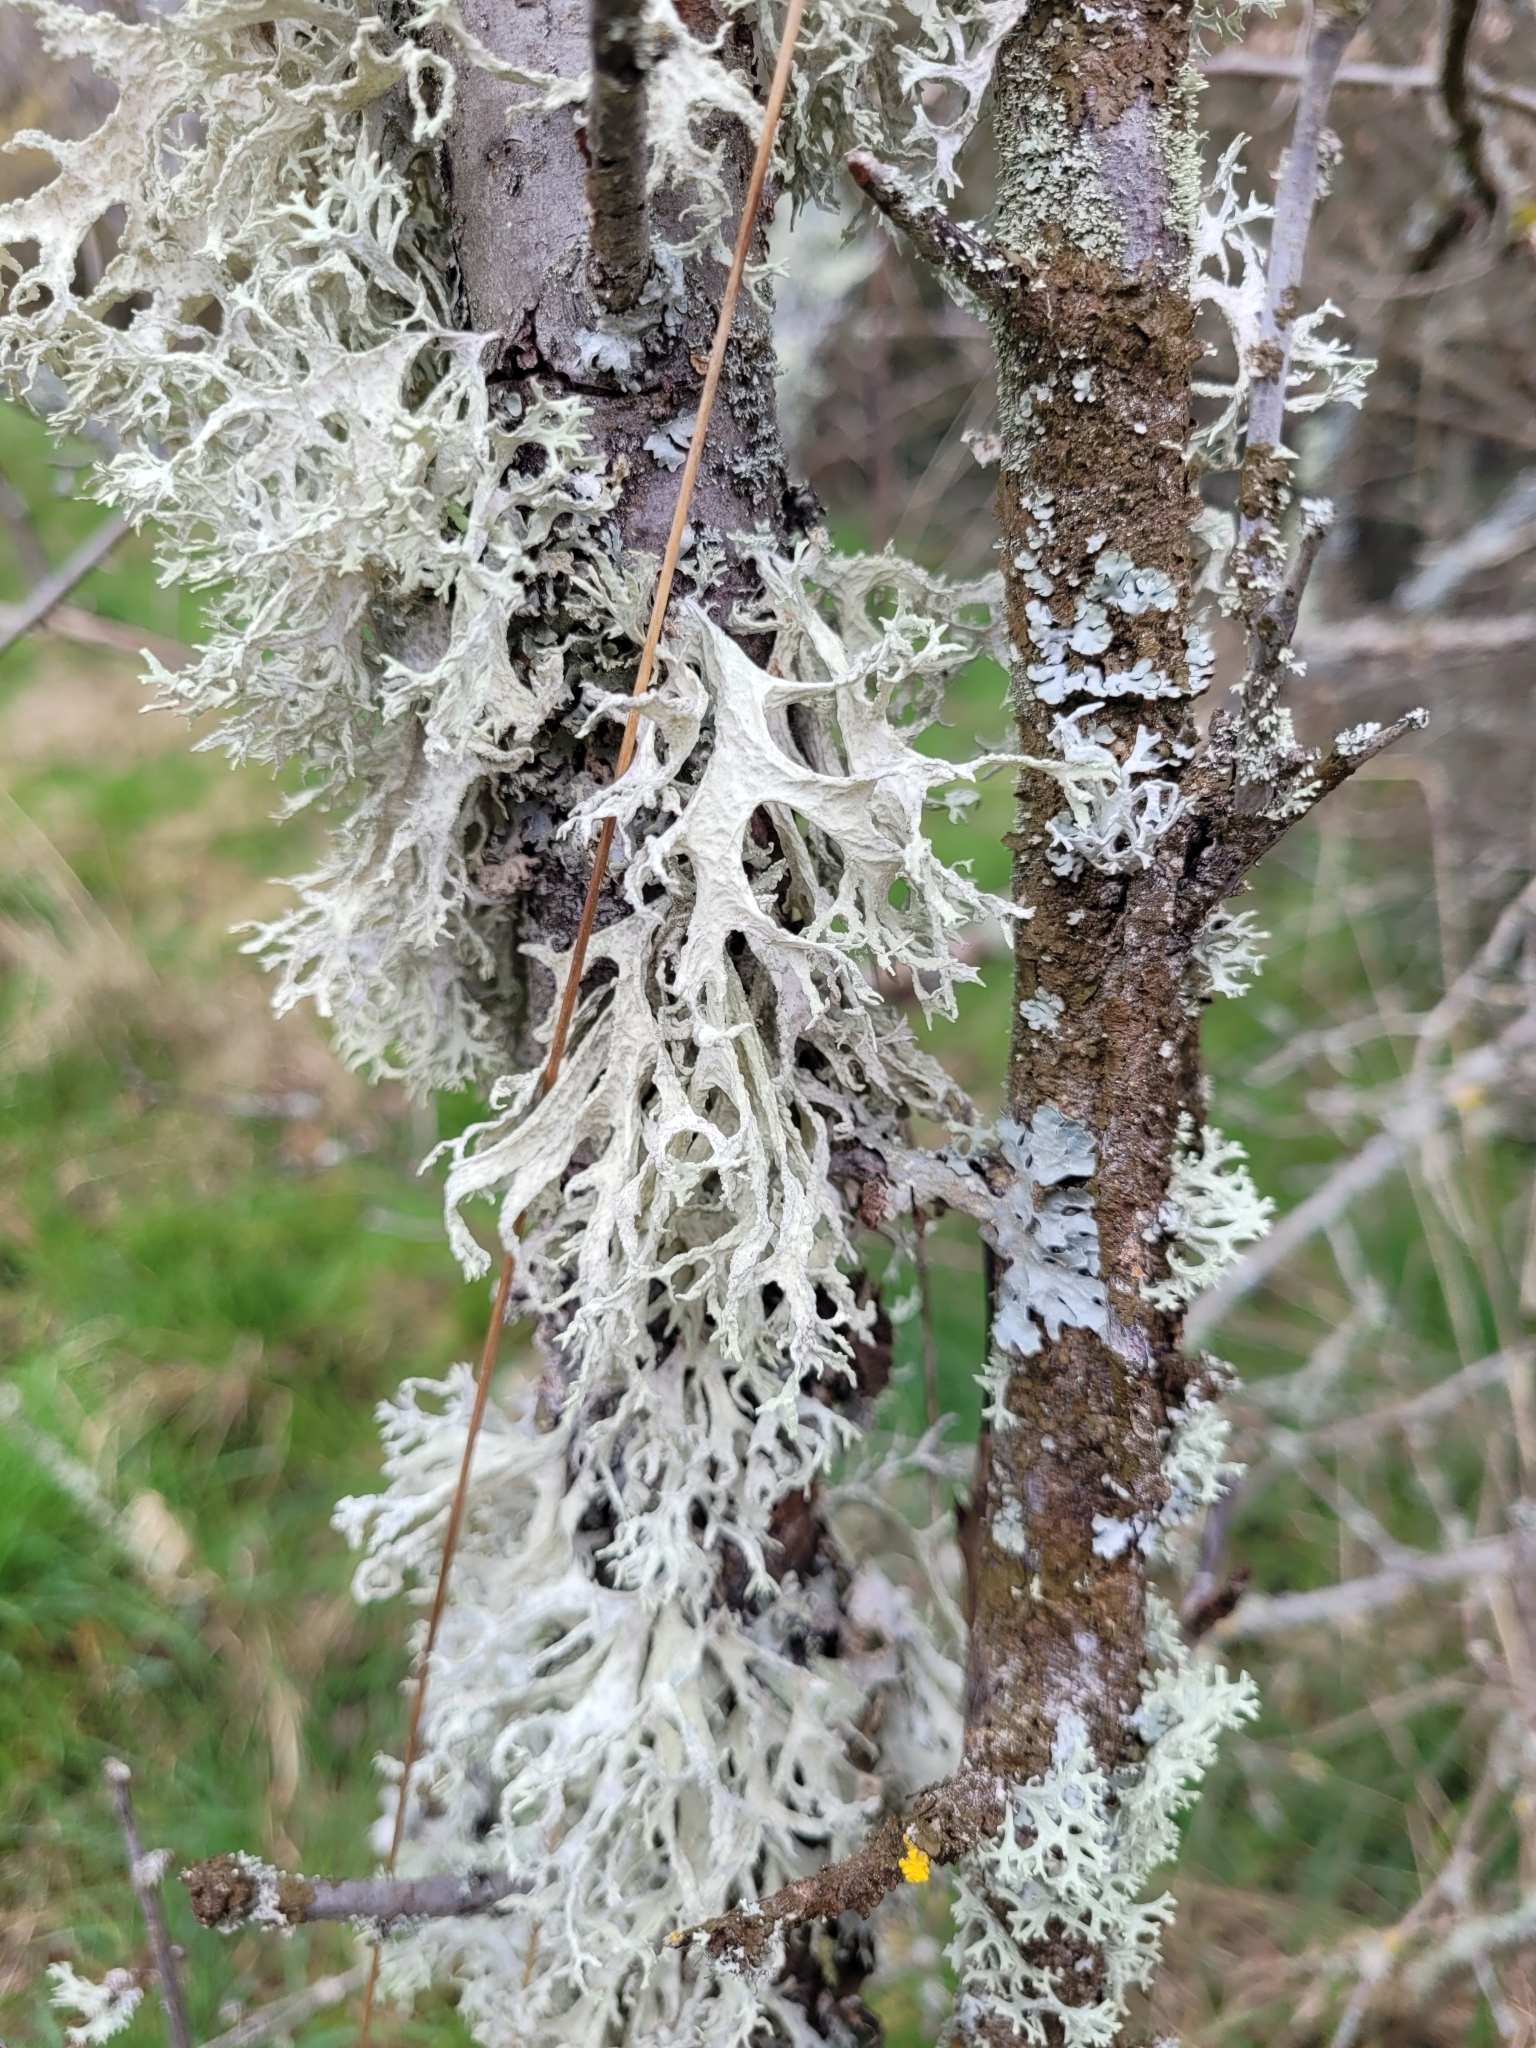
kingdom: Fungi
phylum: Ascomycota
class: Lecanoromycetes
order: Lecanorales
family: Parmeliaceae
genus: Evernia
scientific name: Evernia prunastri
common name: Oak moss
